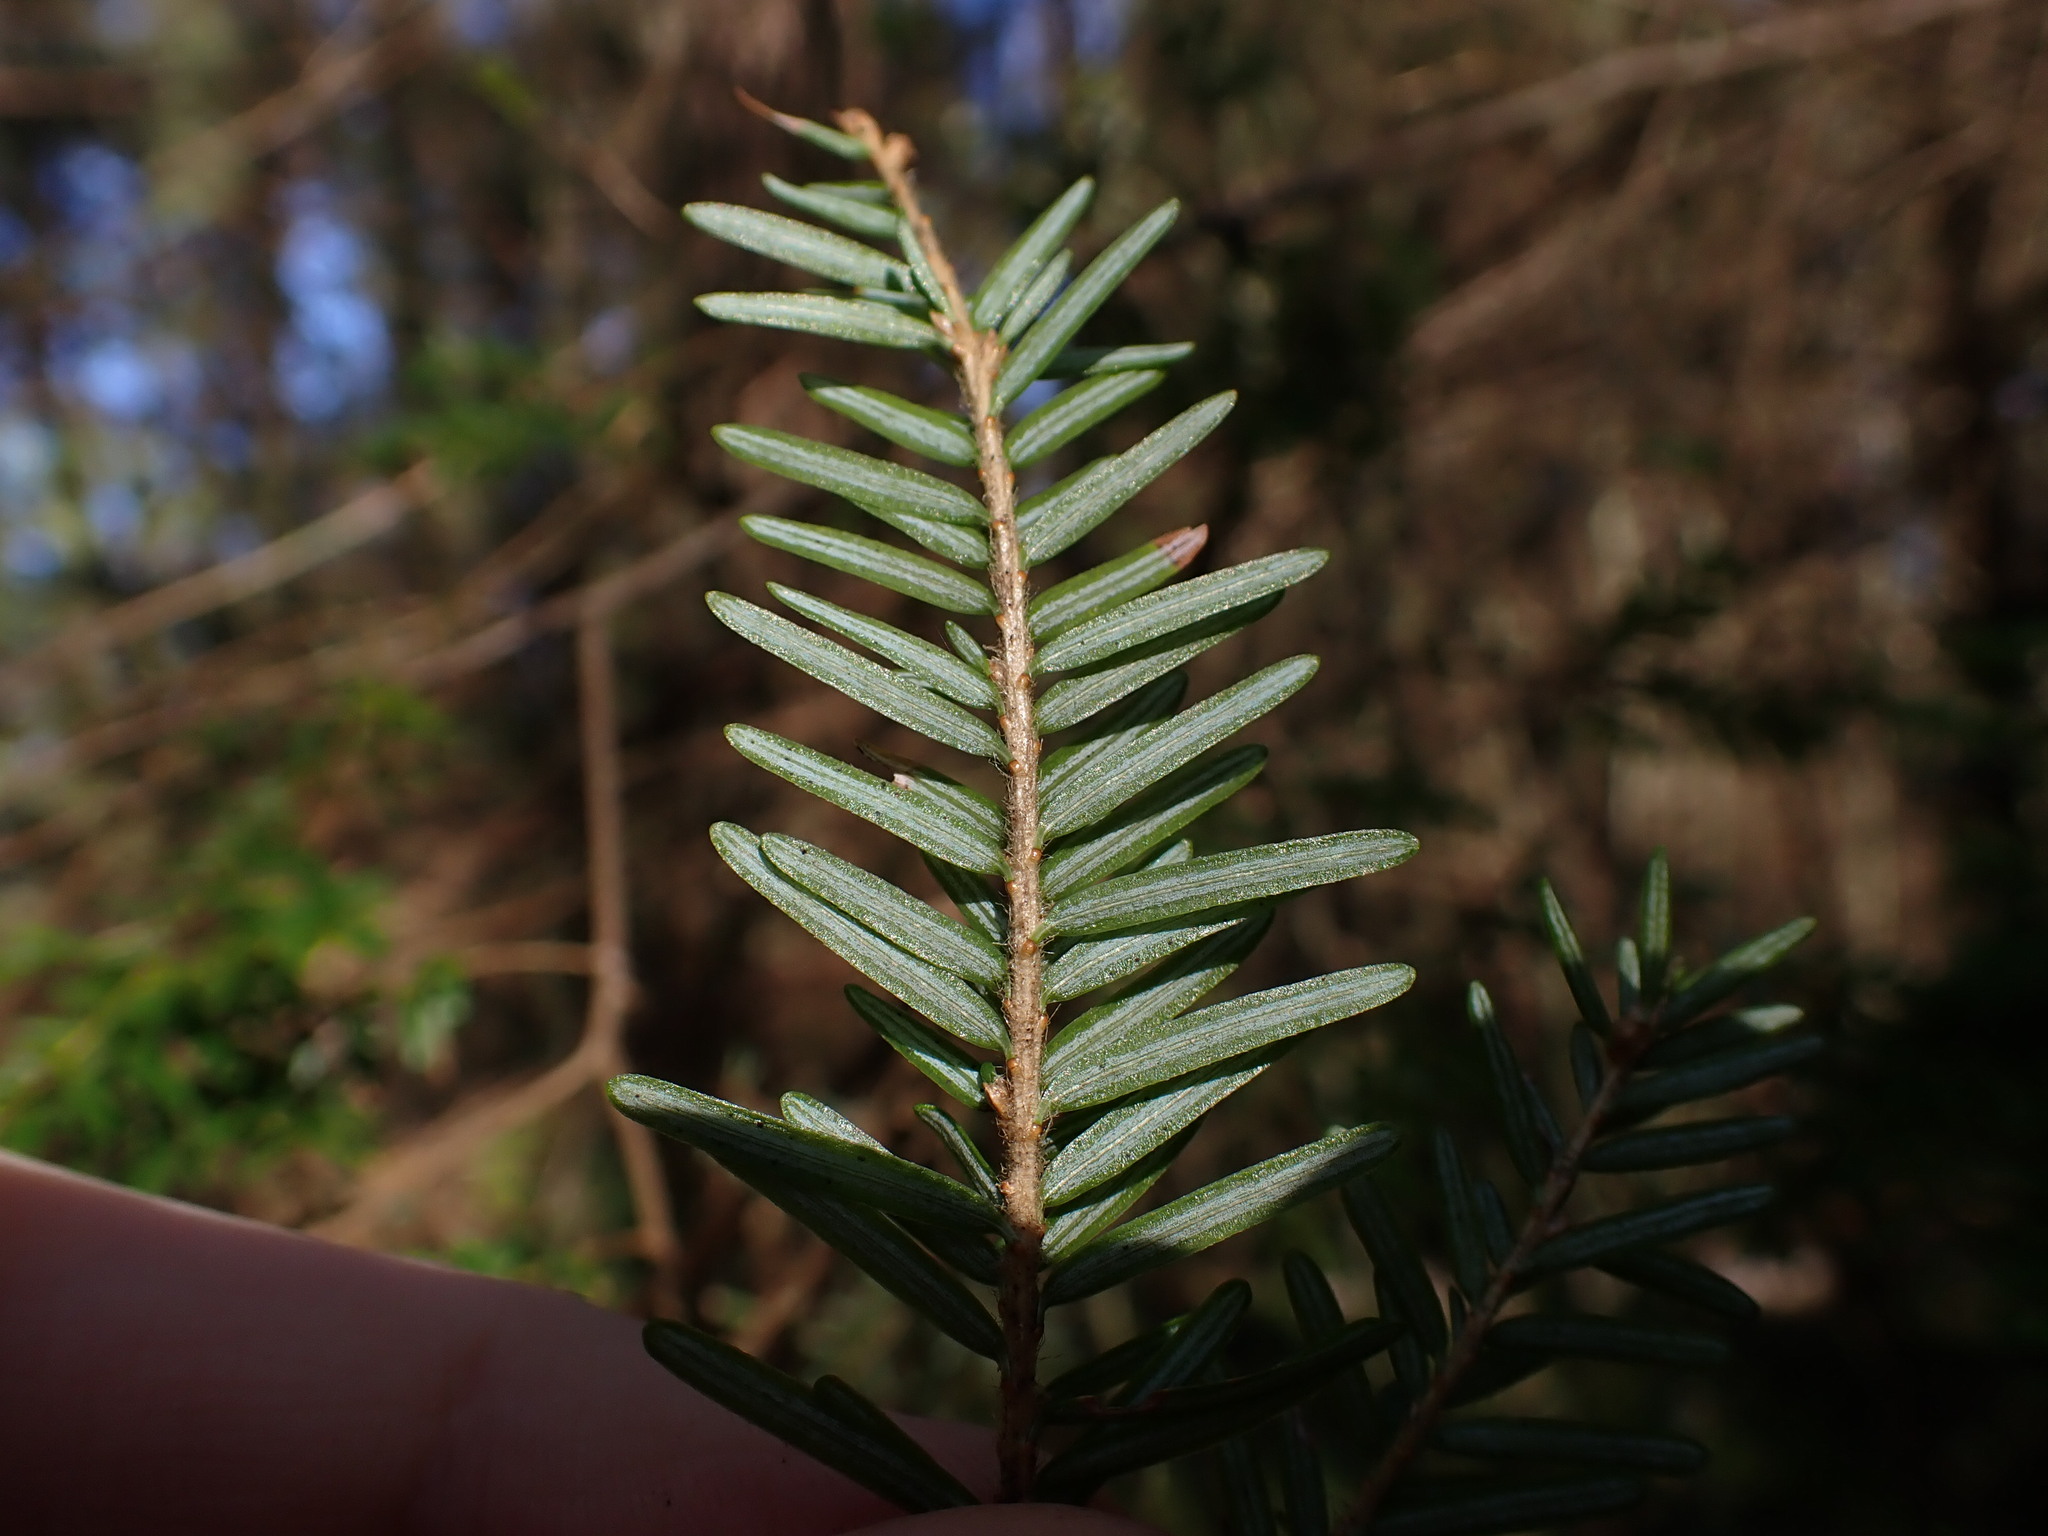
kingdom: Plantae
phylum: Tracheophyta
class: Pinopsida
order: Pinales
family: Pinaceae
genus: Tsuga
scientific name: Tsuga heterophylla
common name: Western hemlock
